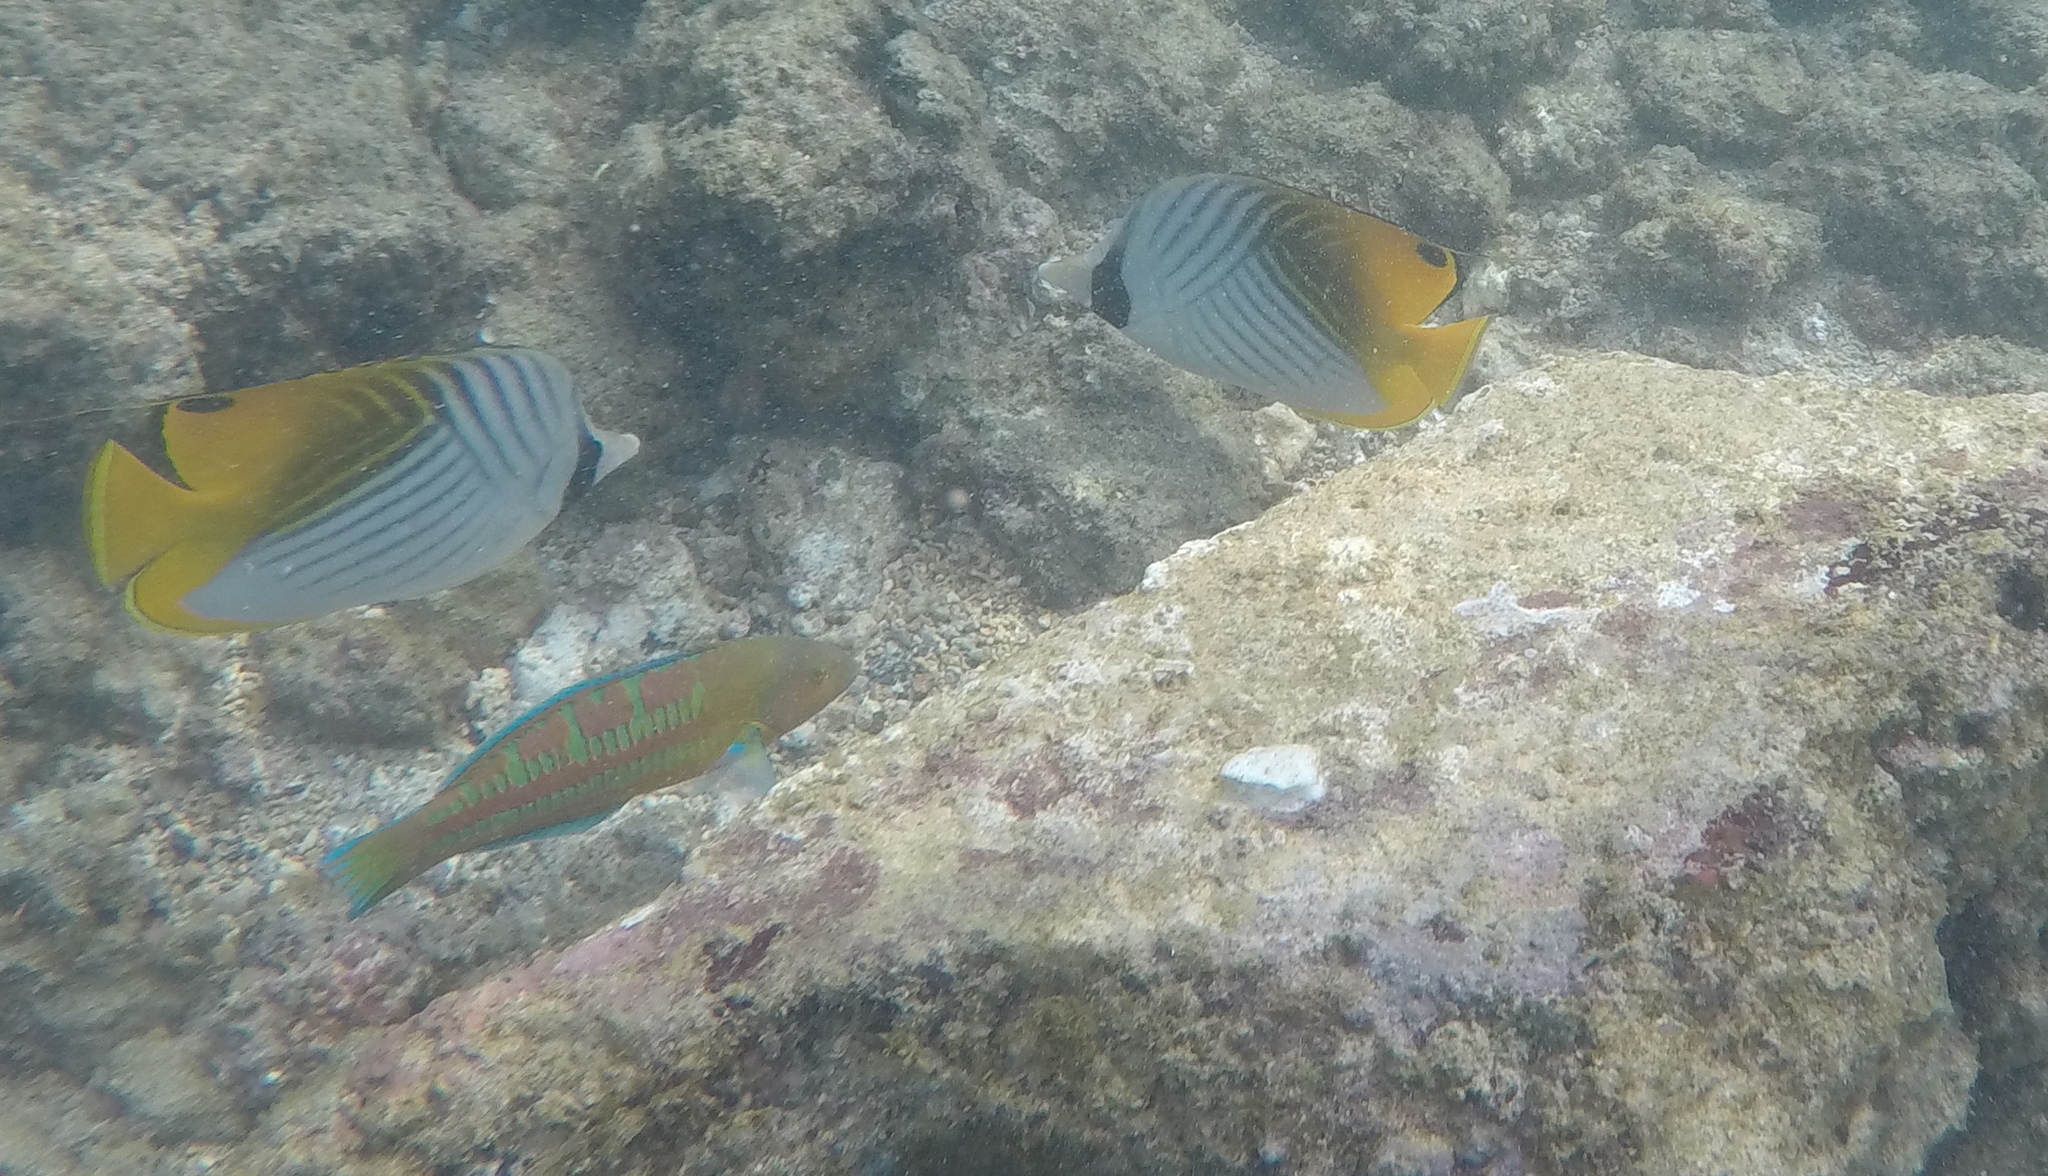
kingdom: Animalia
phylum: Chordata
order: Perciformes
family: Chaetodontidae
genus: Chaetodon
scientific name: Chaetodon auriga
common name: Threadfin butterflyfish
